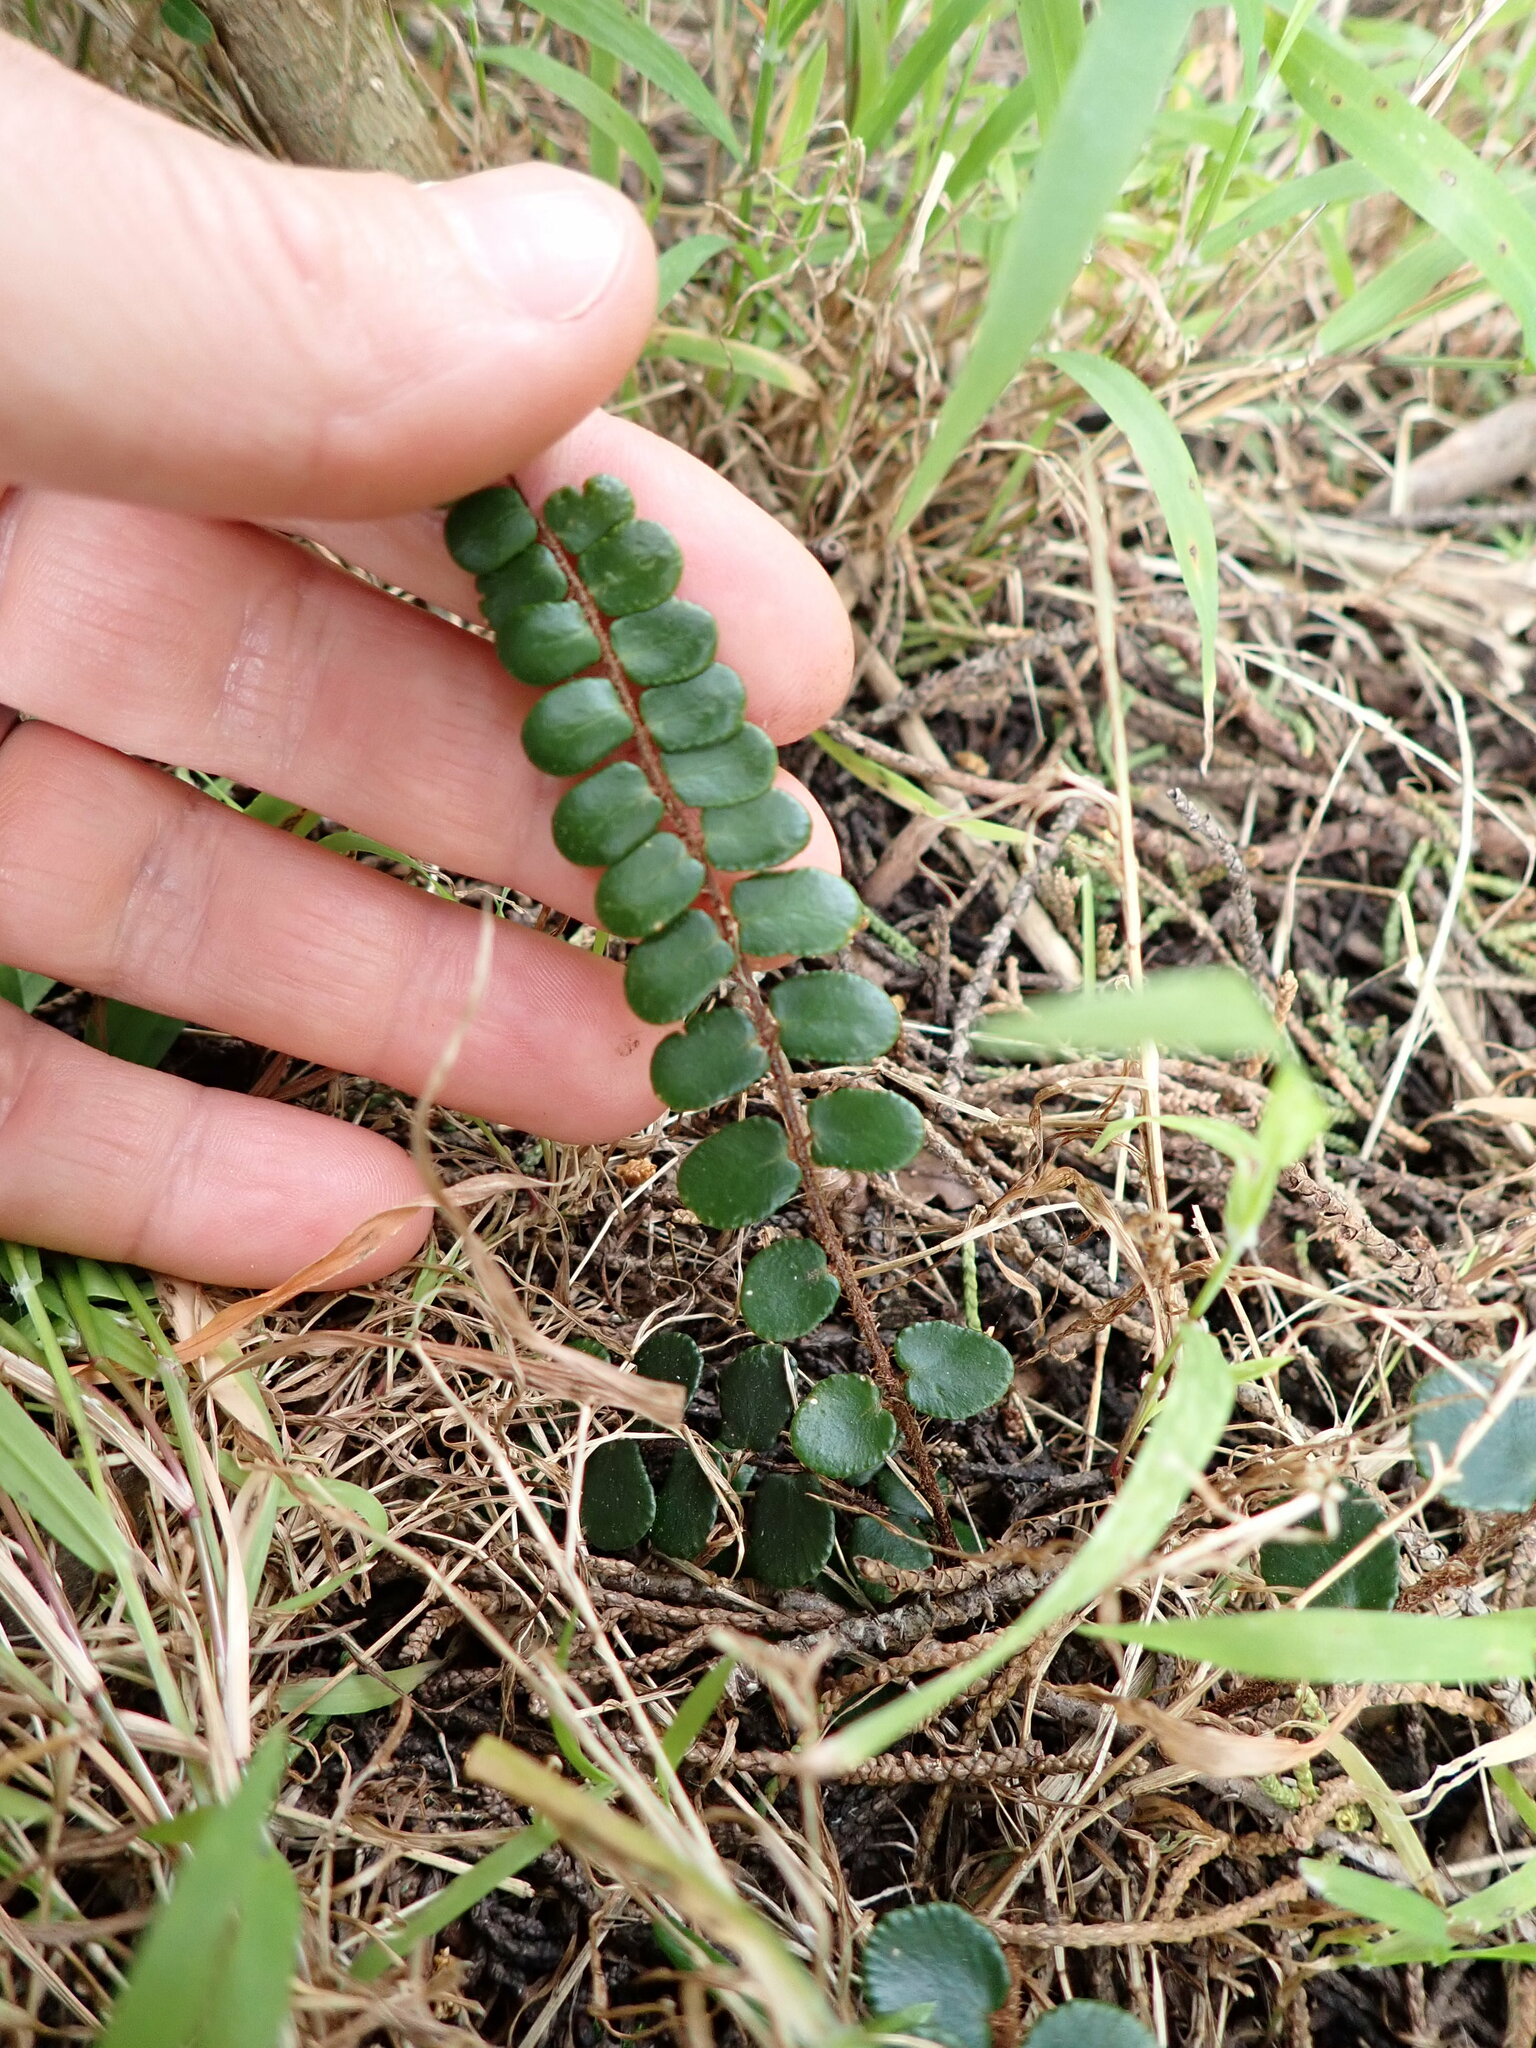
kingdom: Plantae
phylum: Tracheophyta
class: Polypodiopsida
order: Polypodiales
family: Pteridaceae
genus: Pellaea
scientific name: Pellaea rotundifolia
